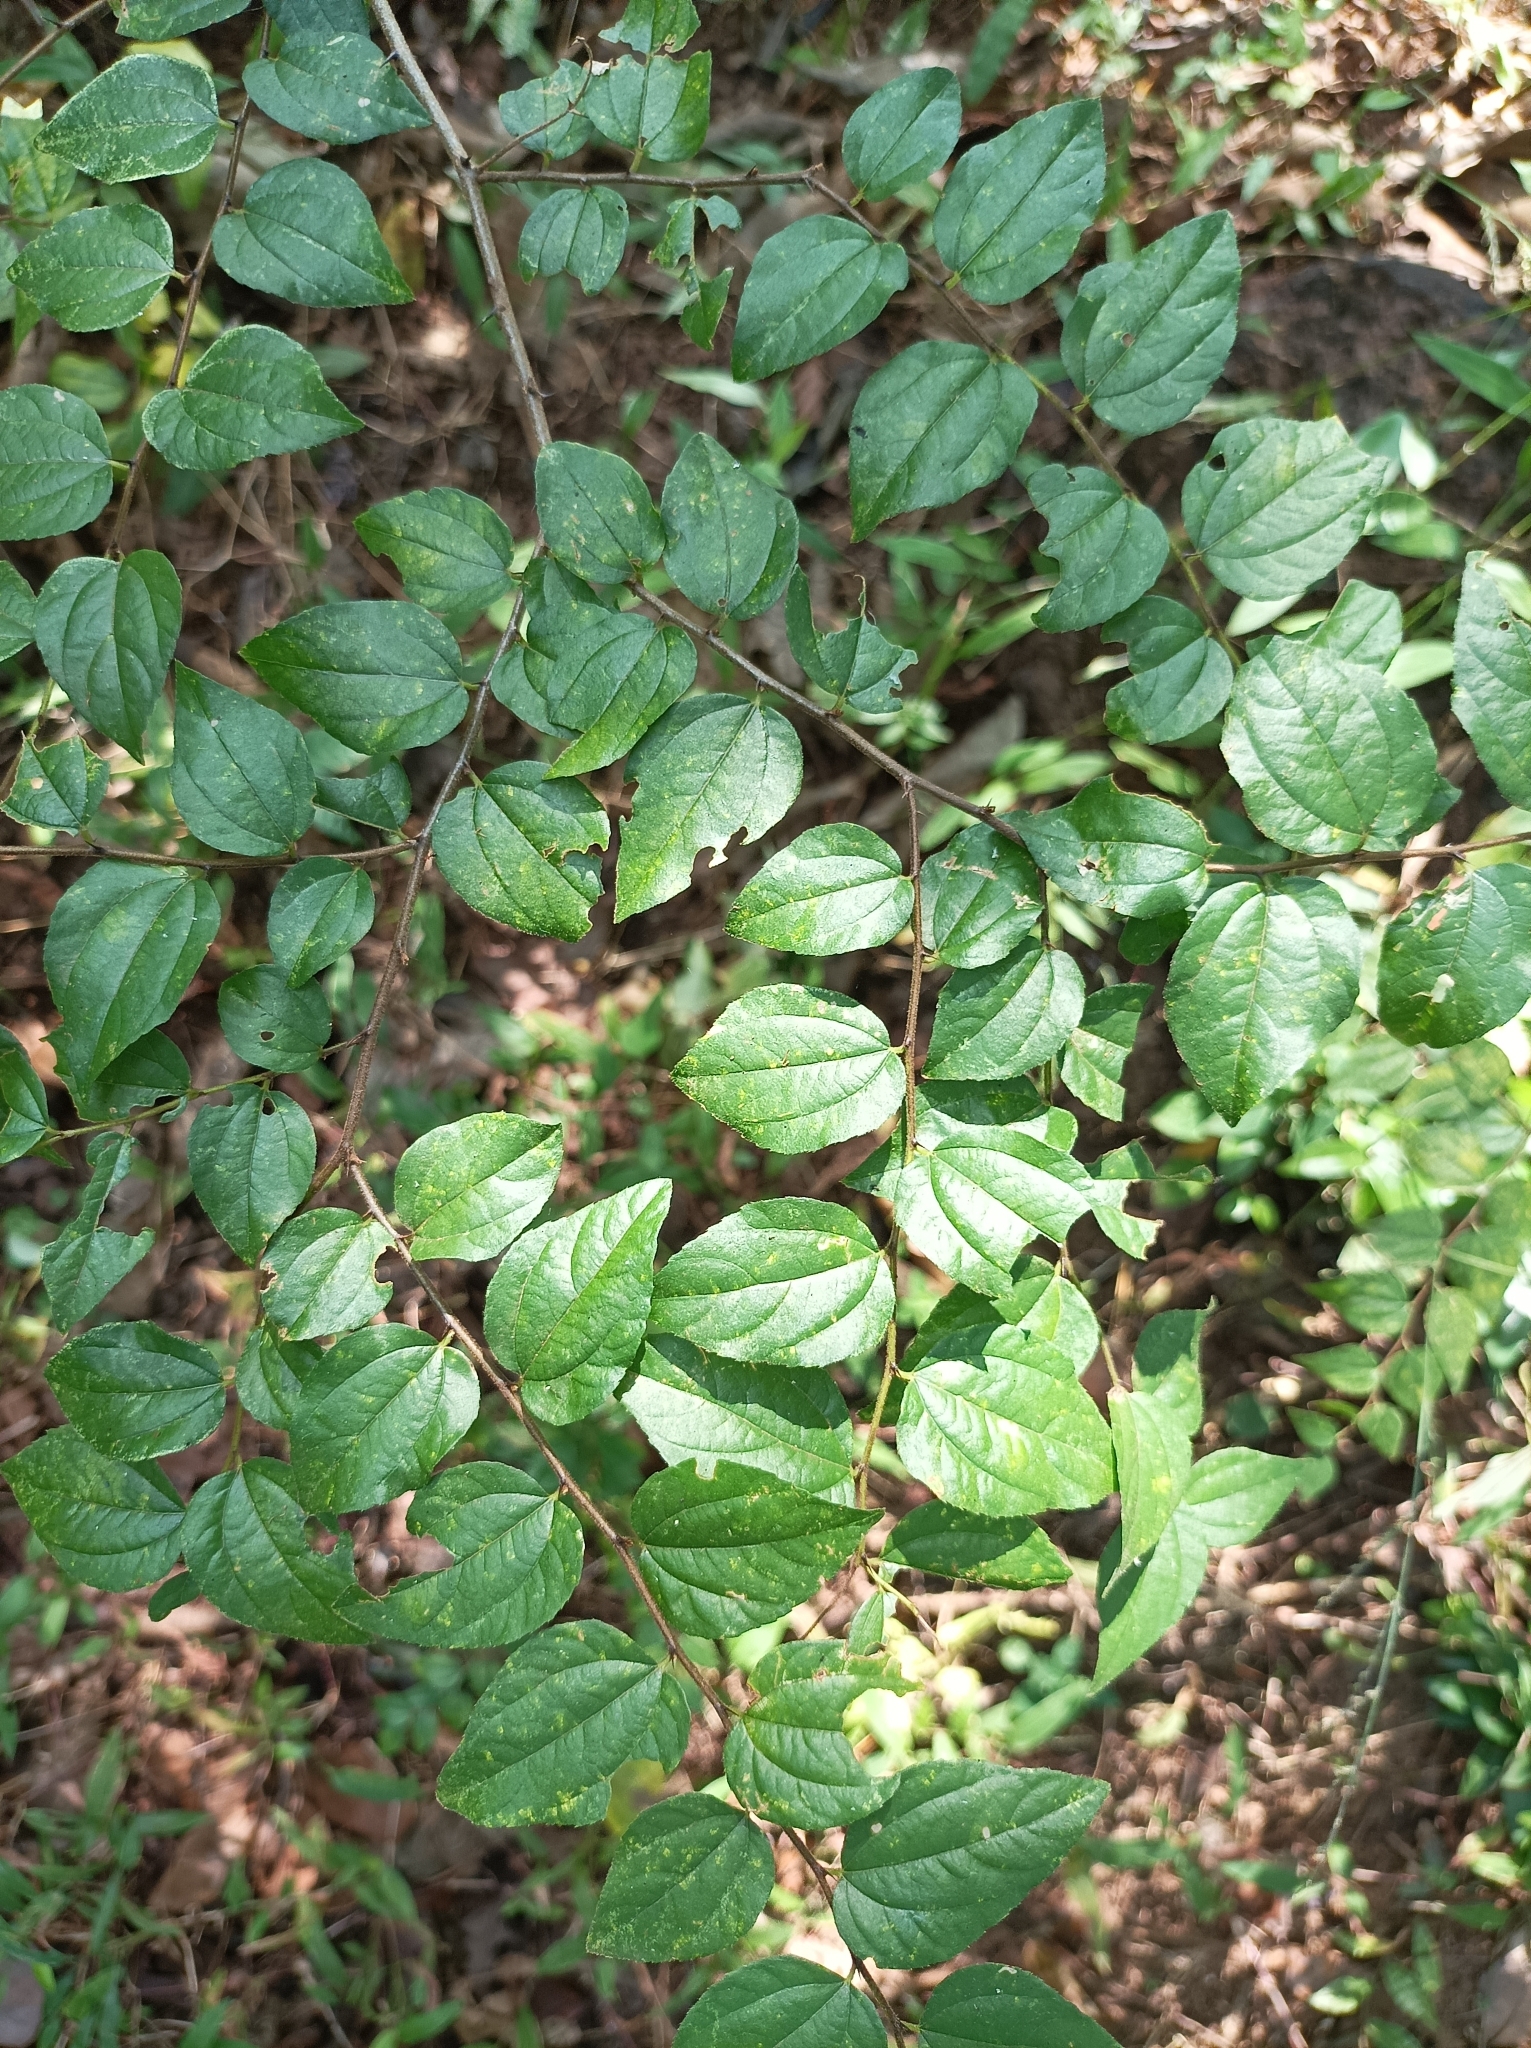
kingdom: Plantae
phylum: Tracheophyta
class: Magnoliopsida
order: Rosales
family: Rhamnaceae
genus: Ziziphus
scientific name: Ziziphus oenopolia
